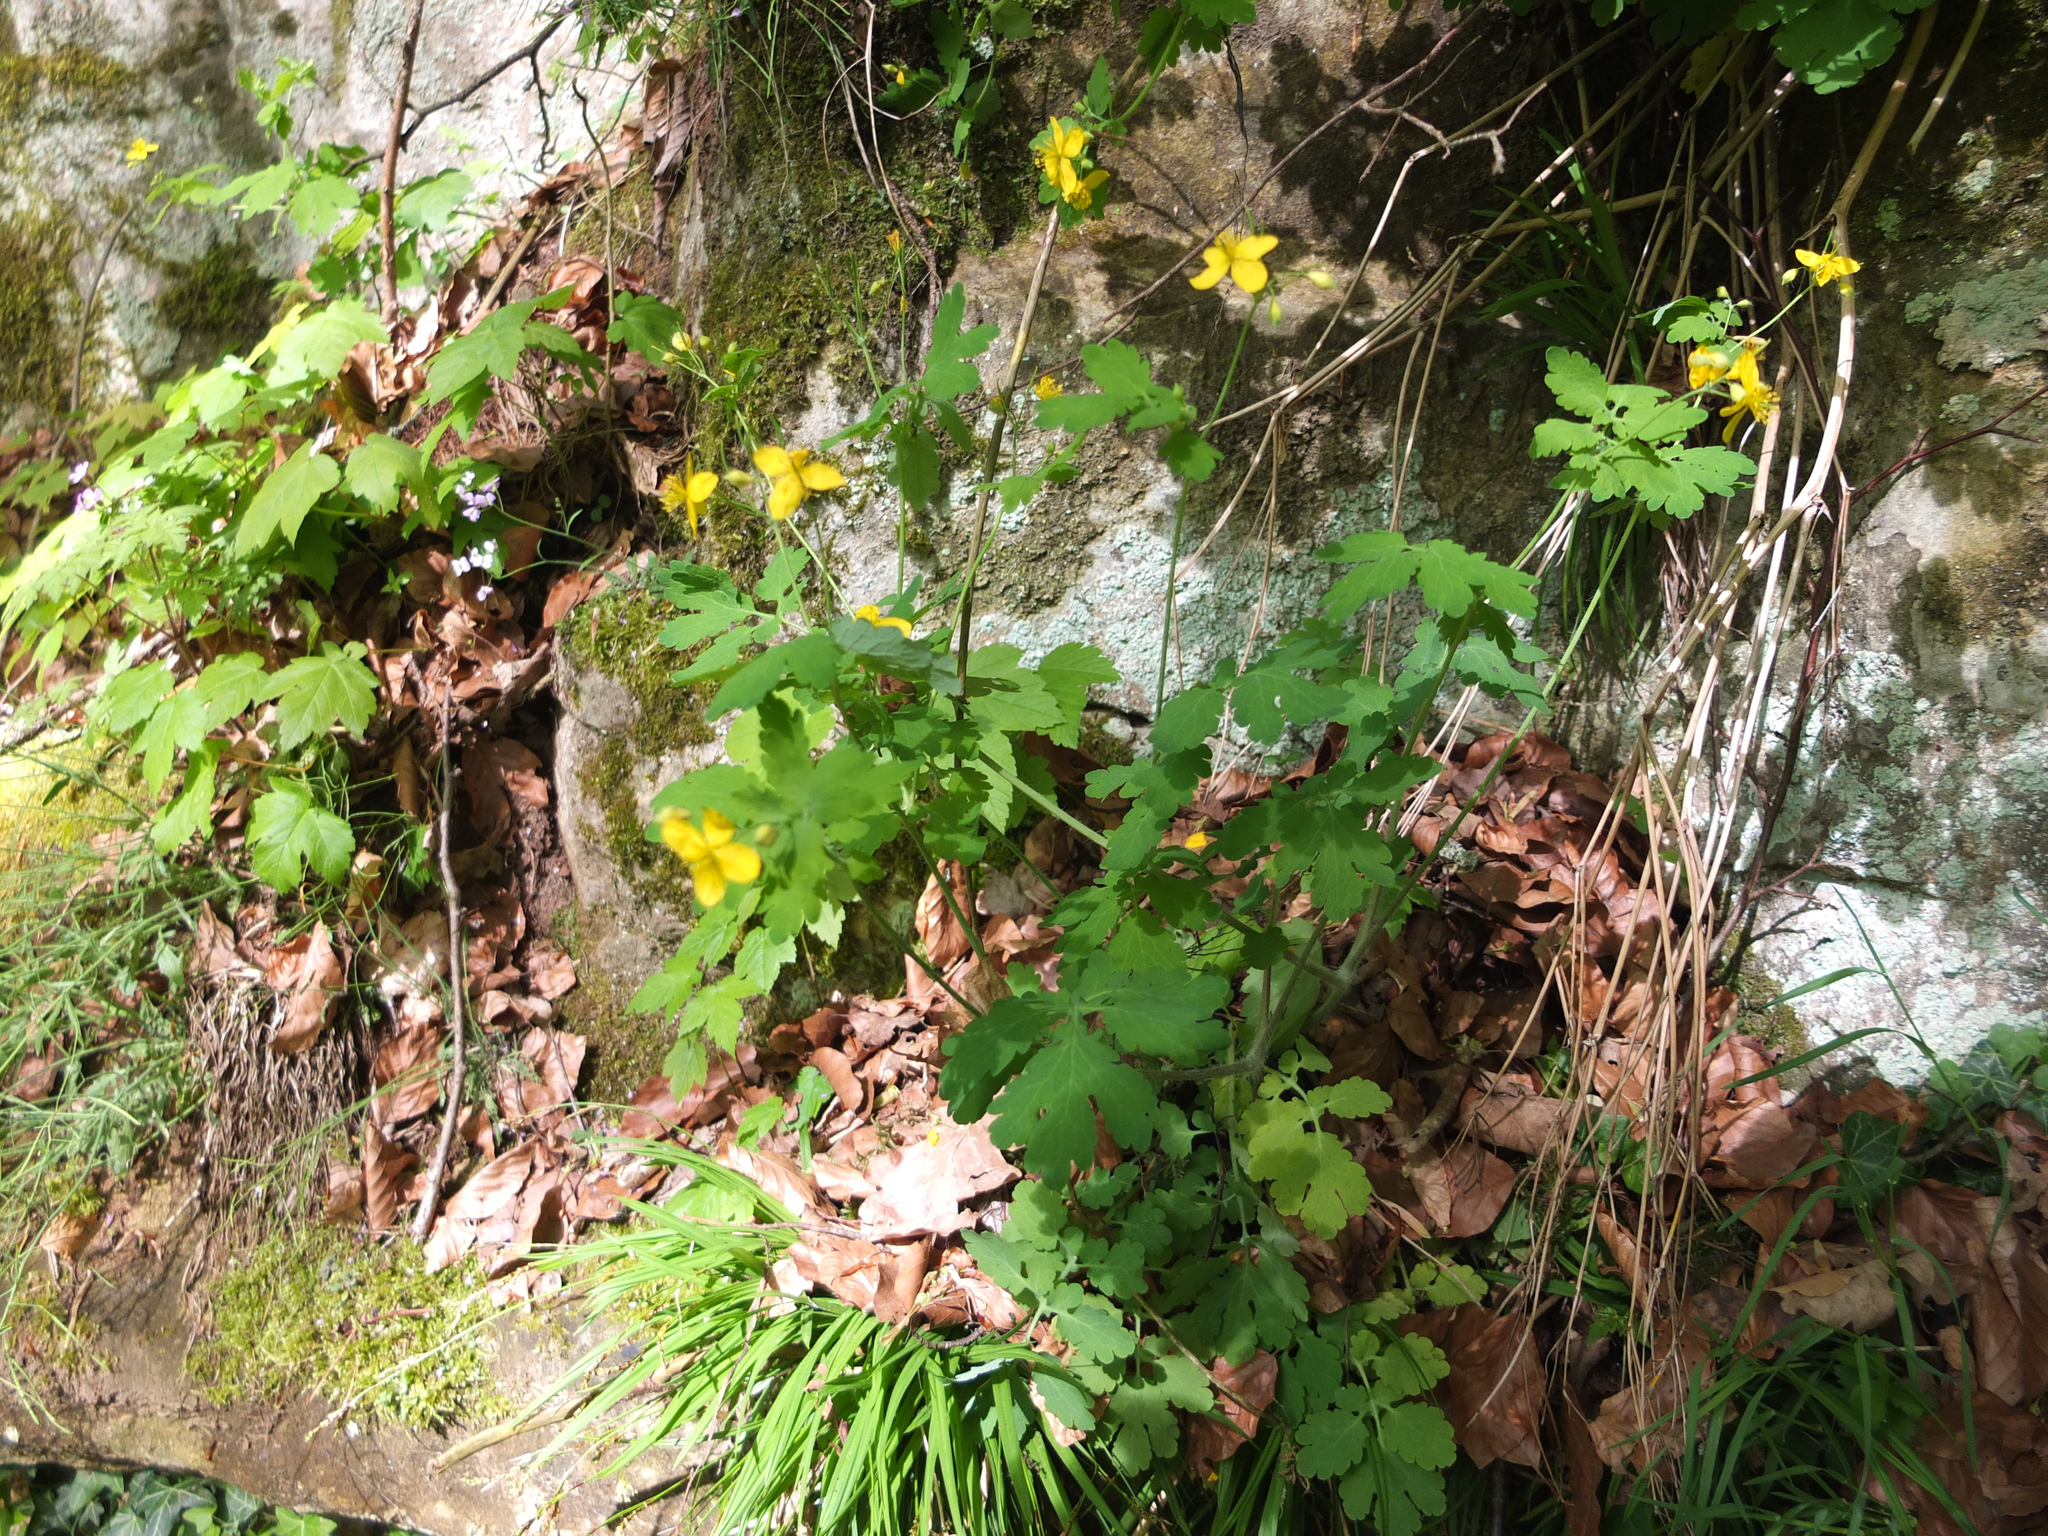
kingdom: Plantae
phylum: Tracheophyta
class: Magnoliopsida
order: Ranunculales
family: Papaveraceae
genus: Chelidonium
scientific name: Chelidonium majus
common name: Greater celandine
